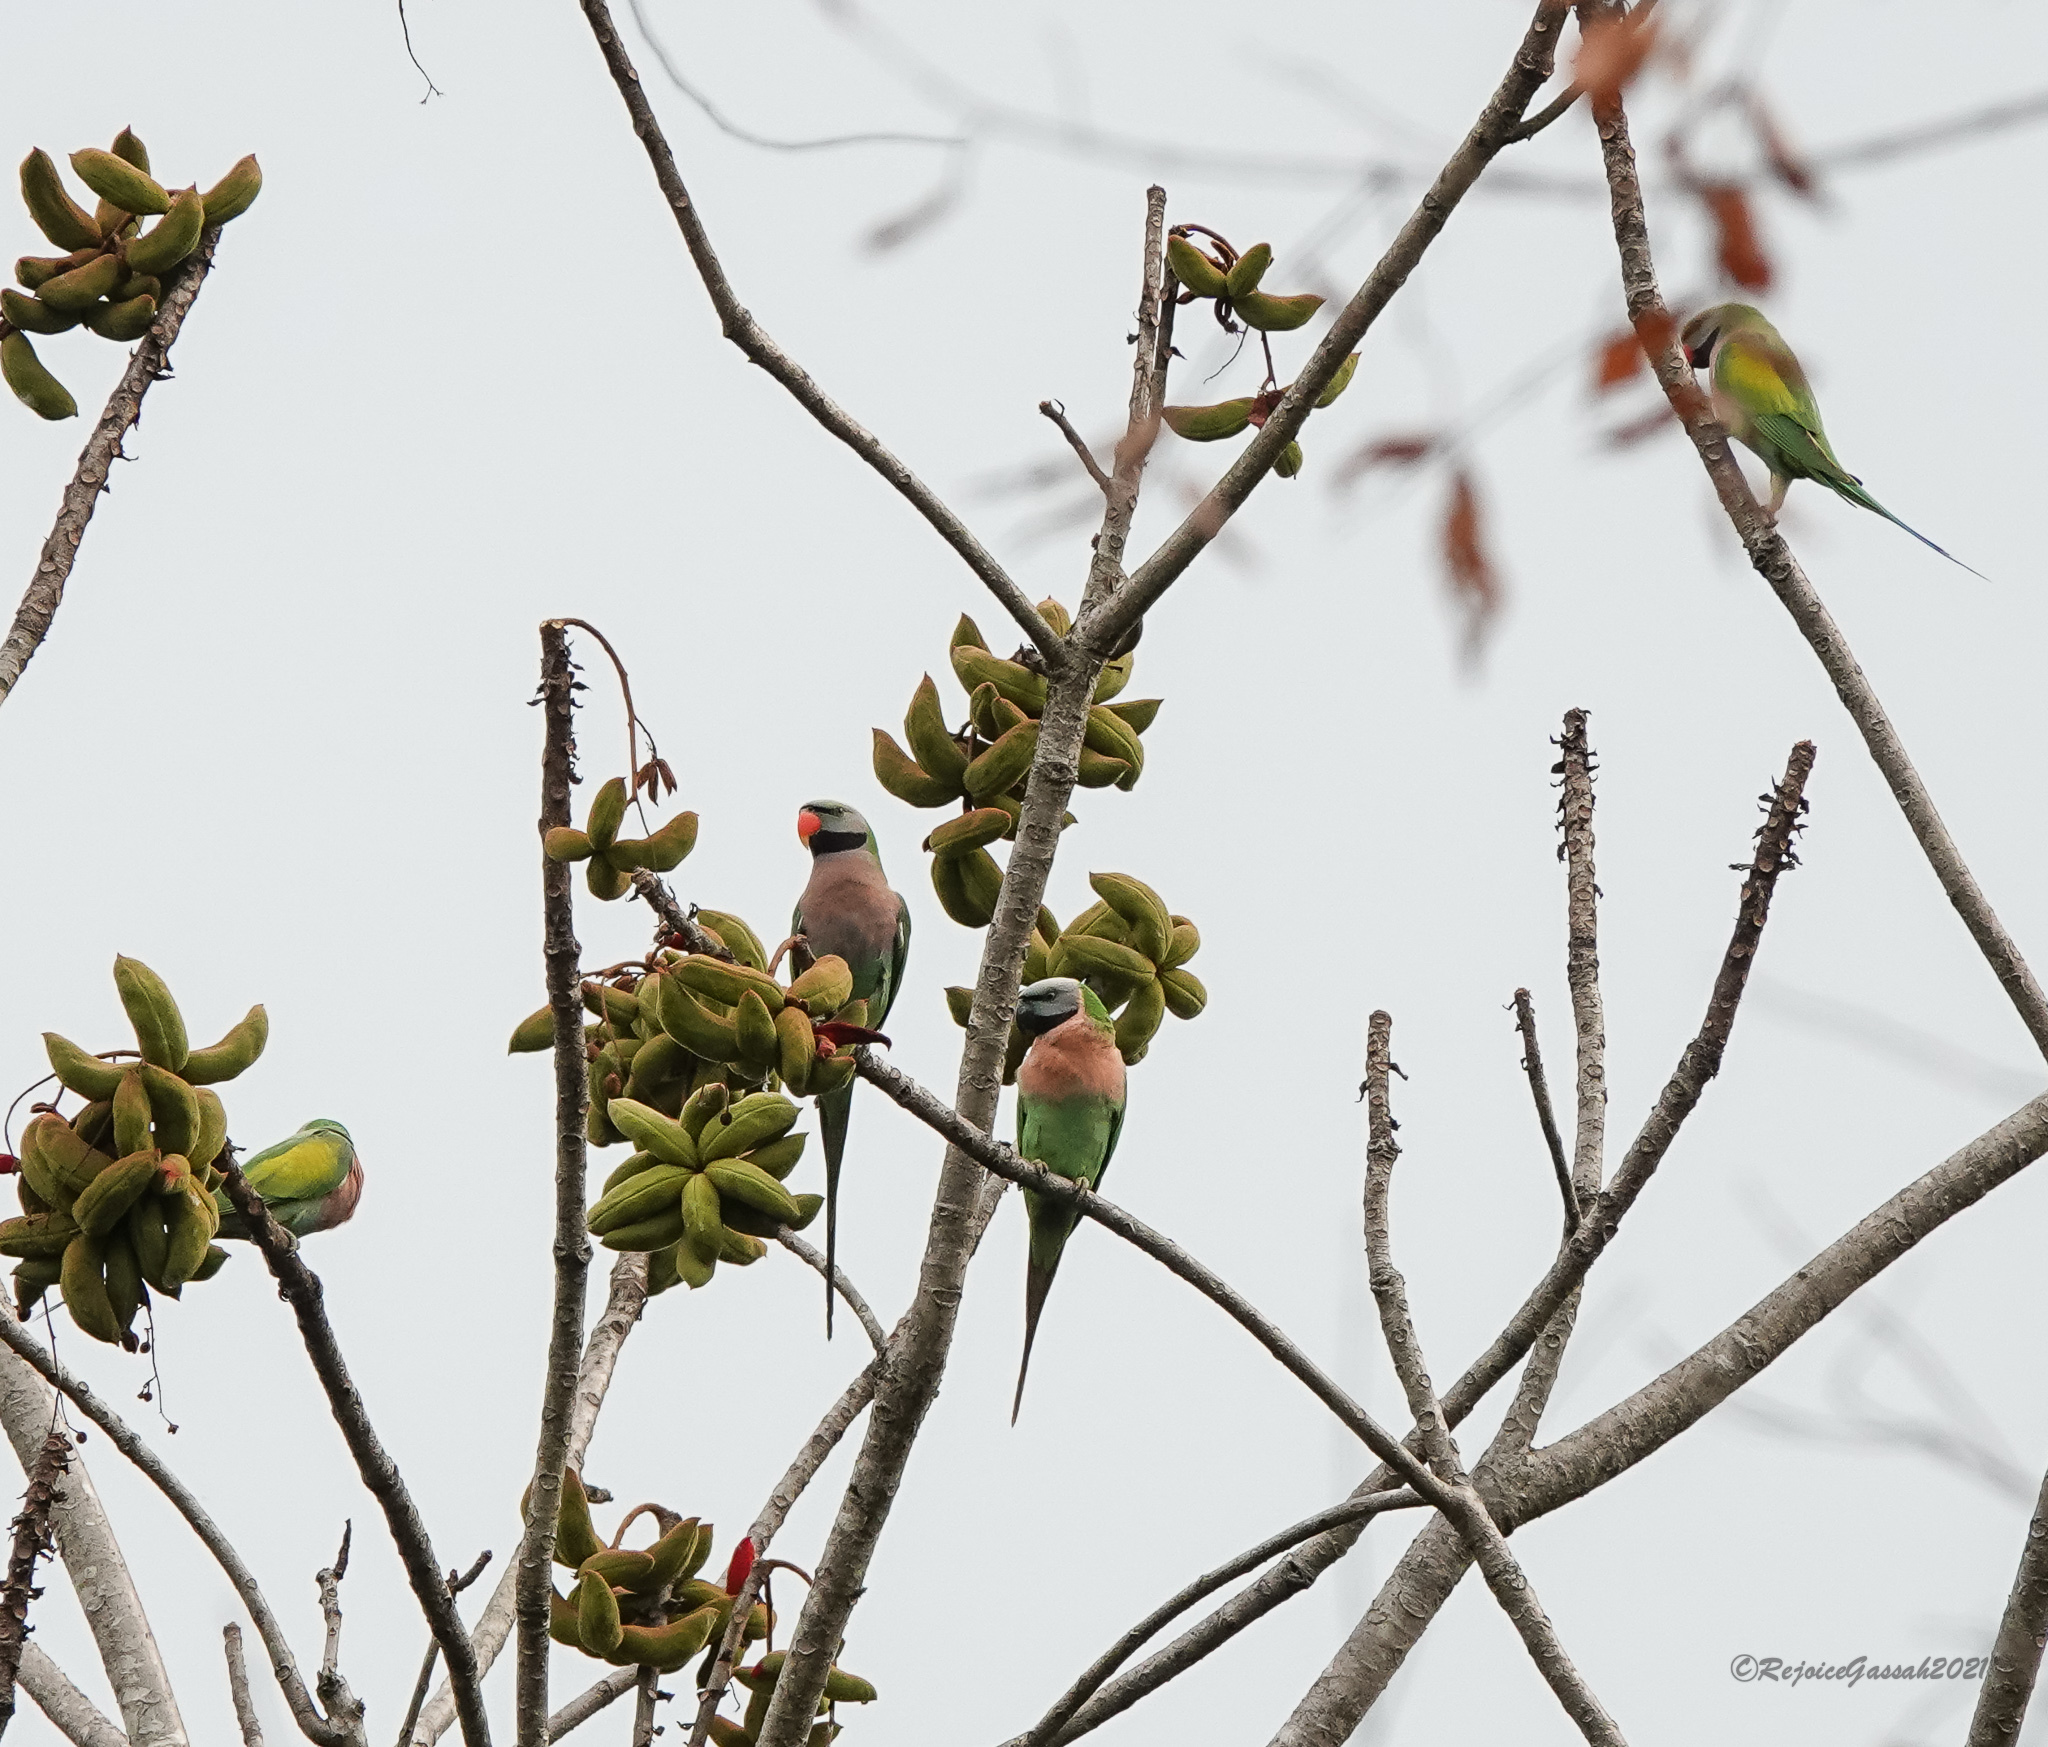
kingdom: Animalia
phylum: Chordata
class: Aves
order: Psittaciformes
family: Psittacidae
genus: Psittacula
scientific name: Psittacula alexandri
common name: Red-breasted parakeet
